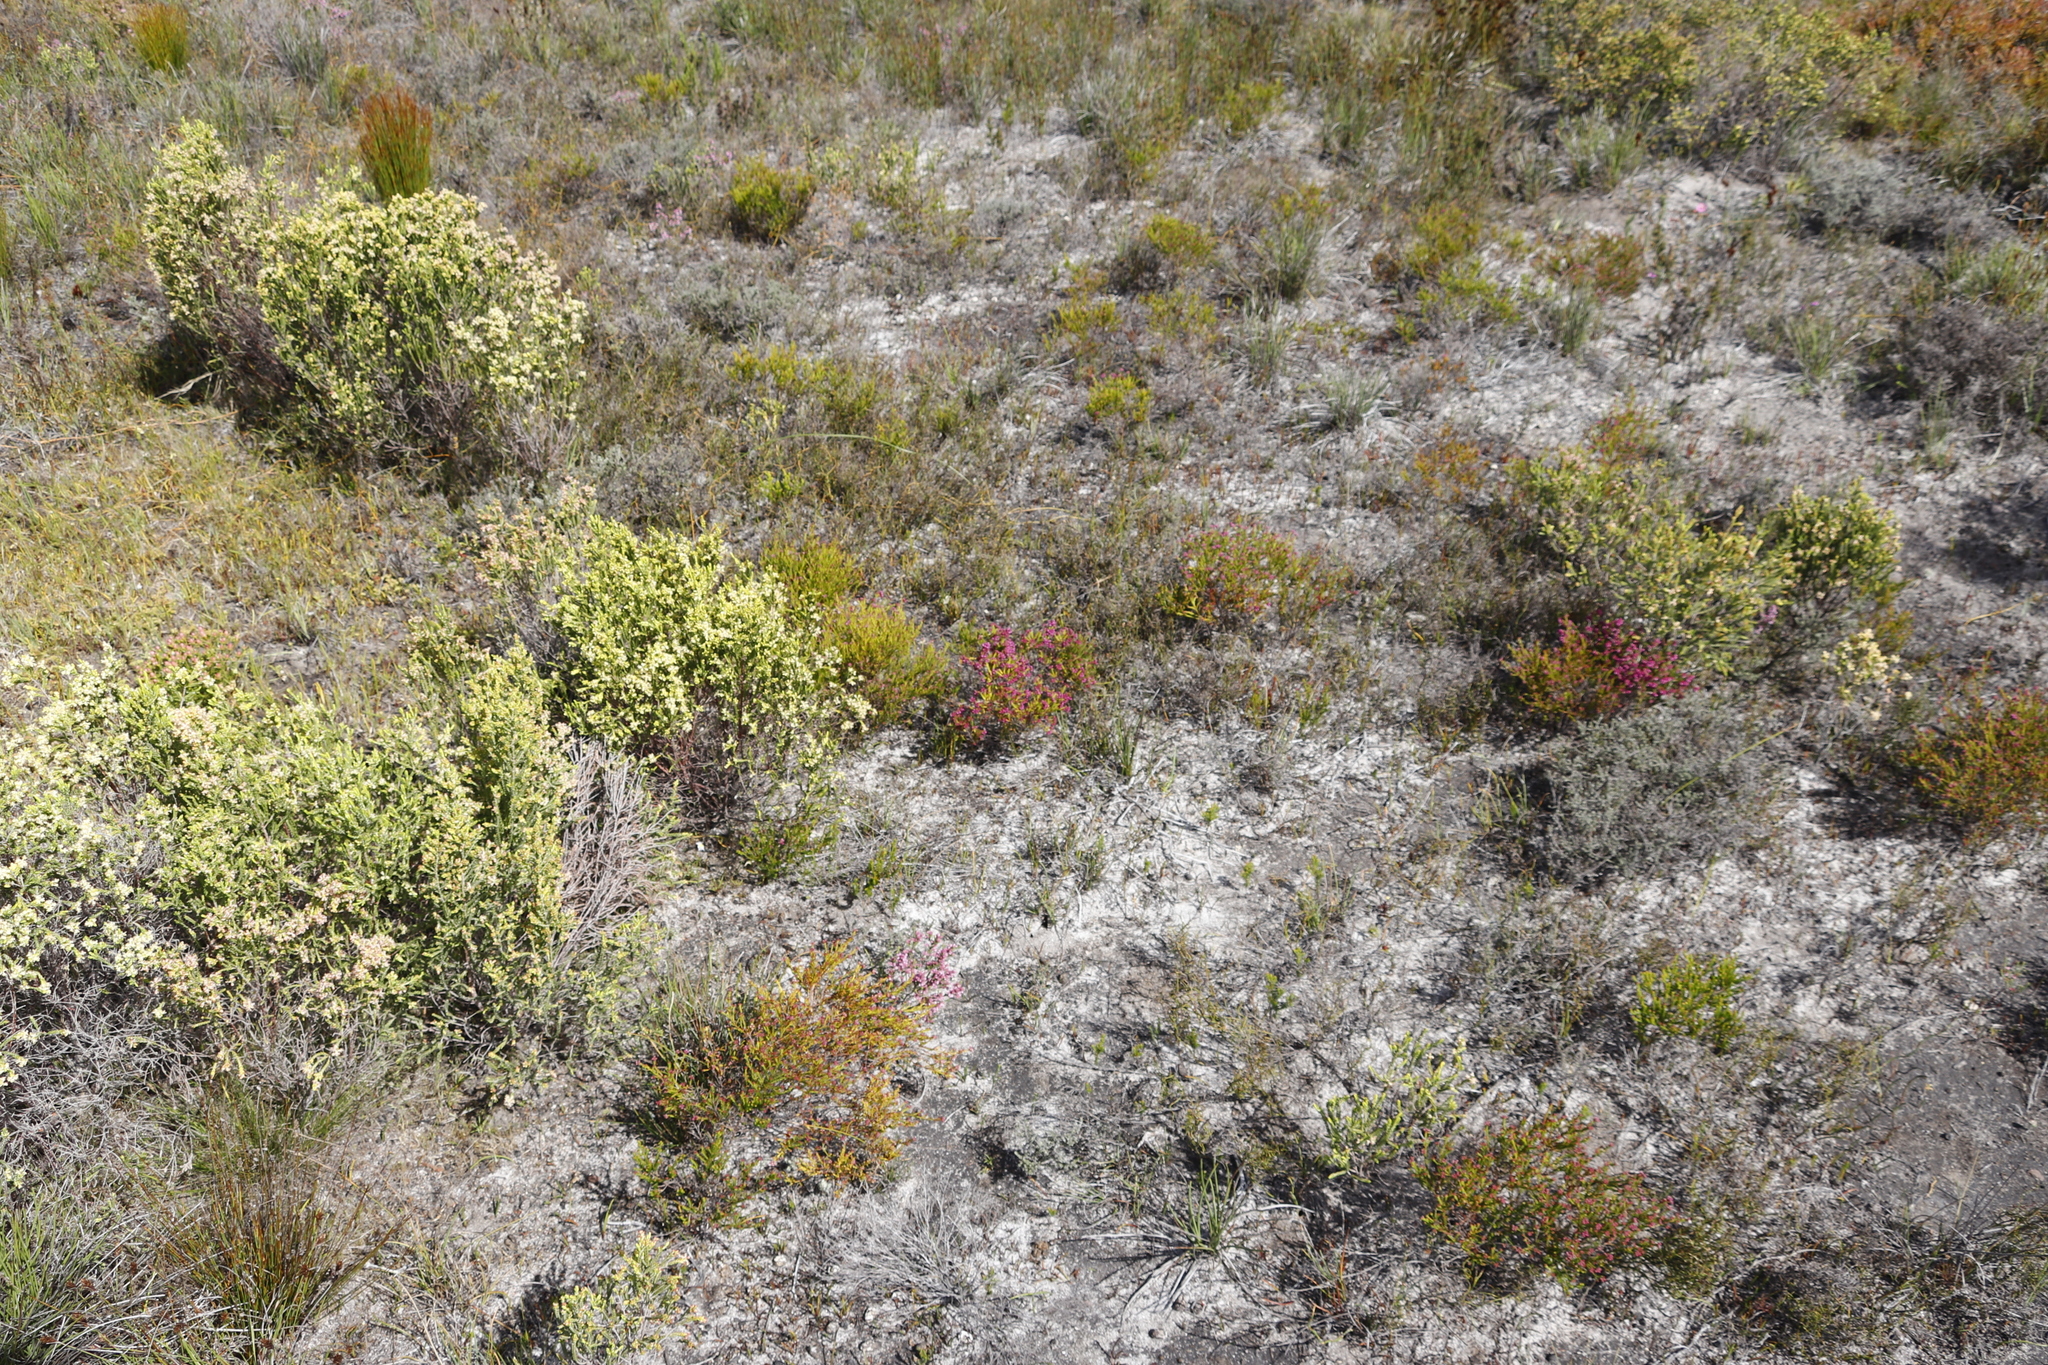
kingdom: Plantae
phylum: Tracheophyta
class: Magnoliopsida
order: Ericales
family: Ericaceae
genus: Erica
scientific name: Erica multumbellifera
